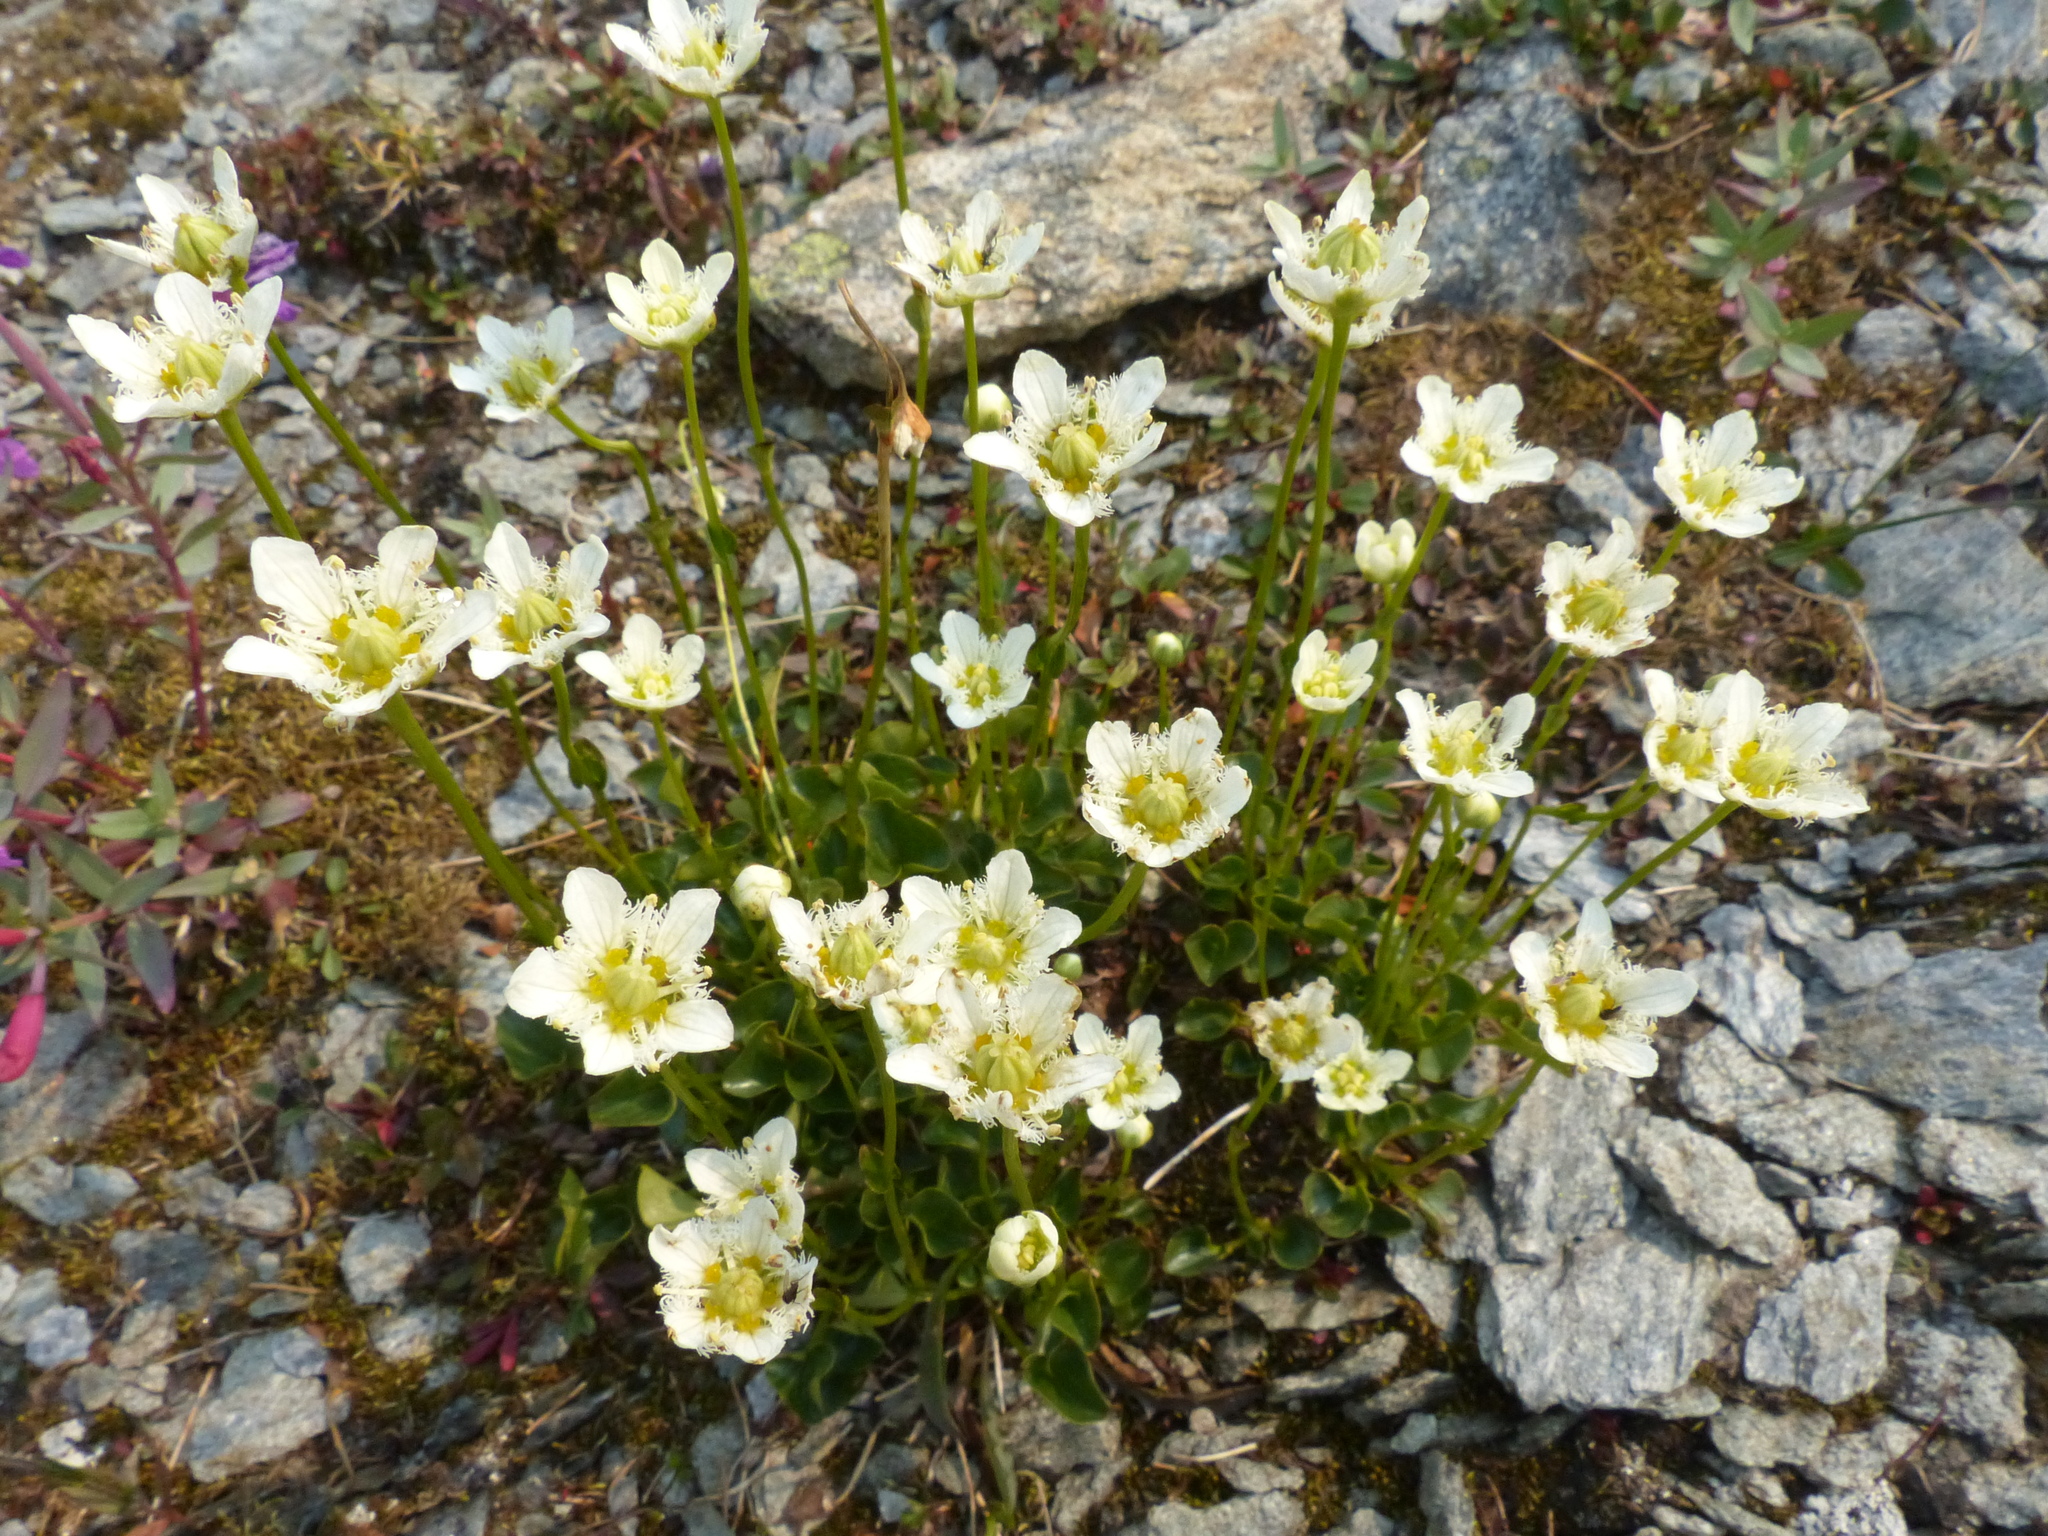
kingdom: Plantae
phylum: Tracheophyta
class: Magnoliopsida
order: Celastrales
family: Parnassiaceae
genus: Parnassia
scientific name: Parnassia fimbriata
